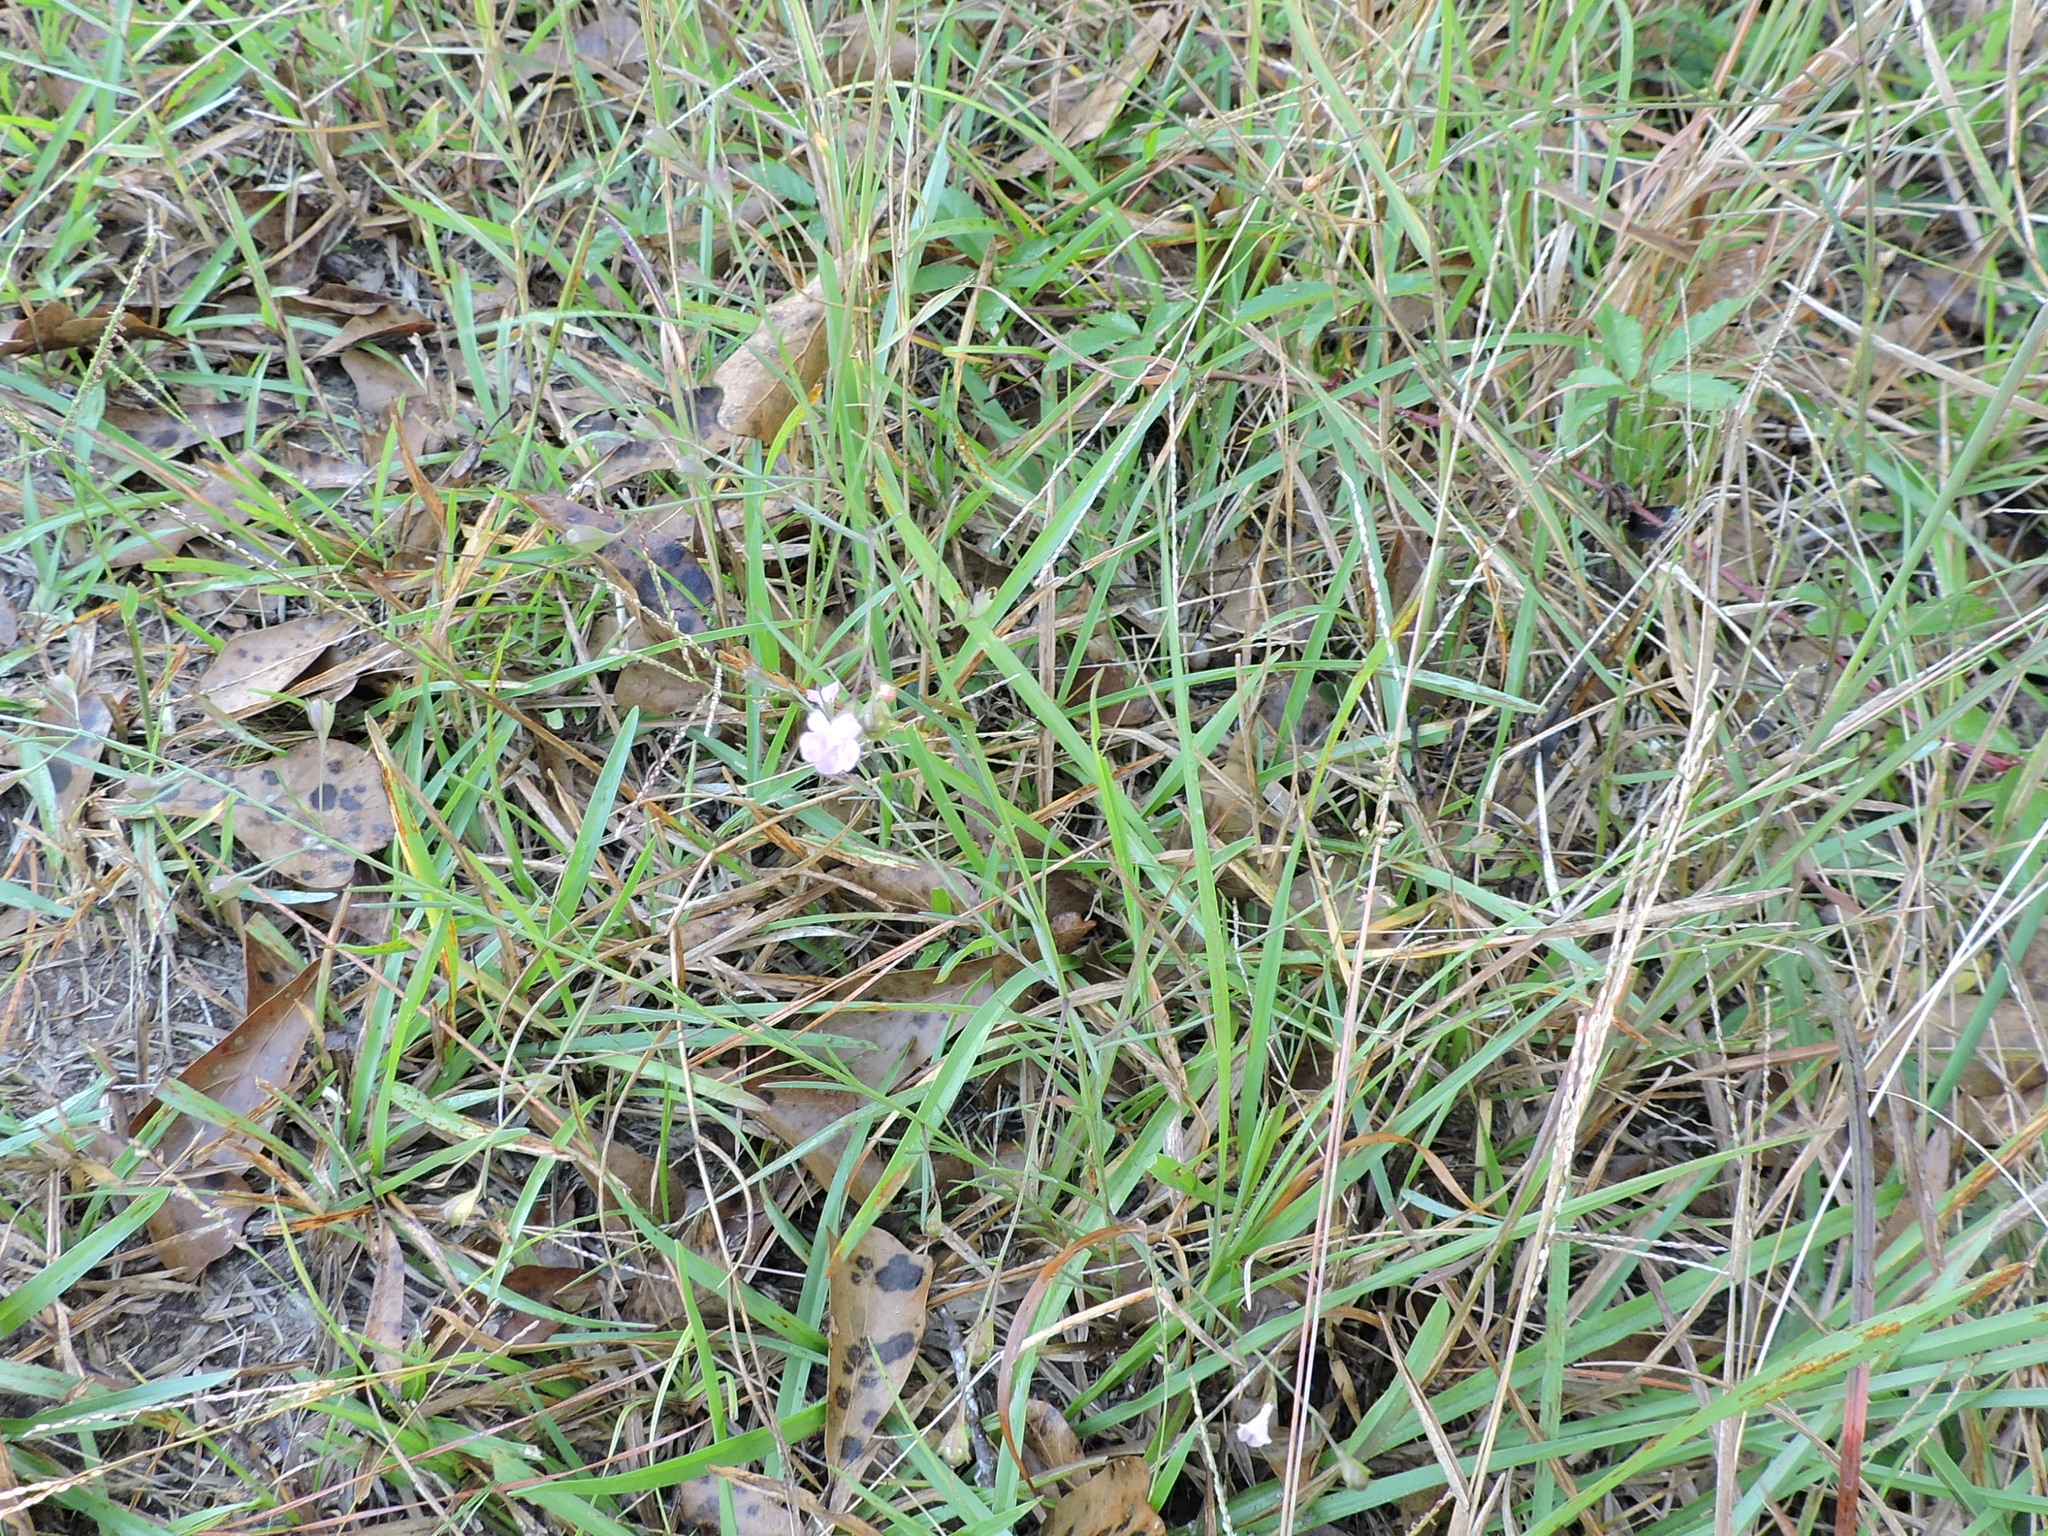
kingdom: Plantae
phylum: Tracheophyta
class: Magnoliopsida
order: Lamiales
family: Orobanchaceae
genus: Agalinis
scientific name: Agalinis viridis
